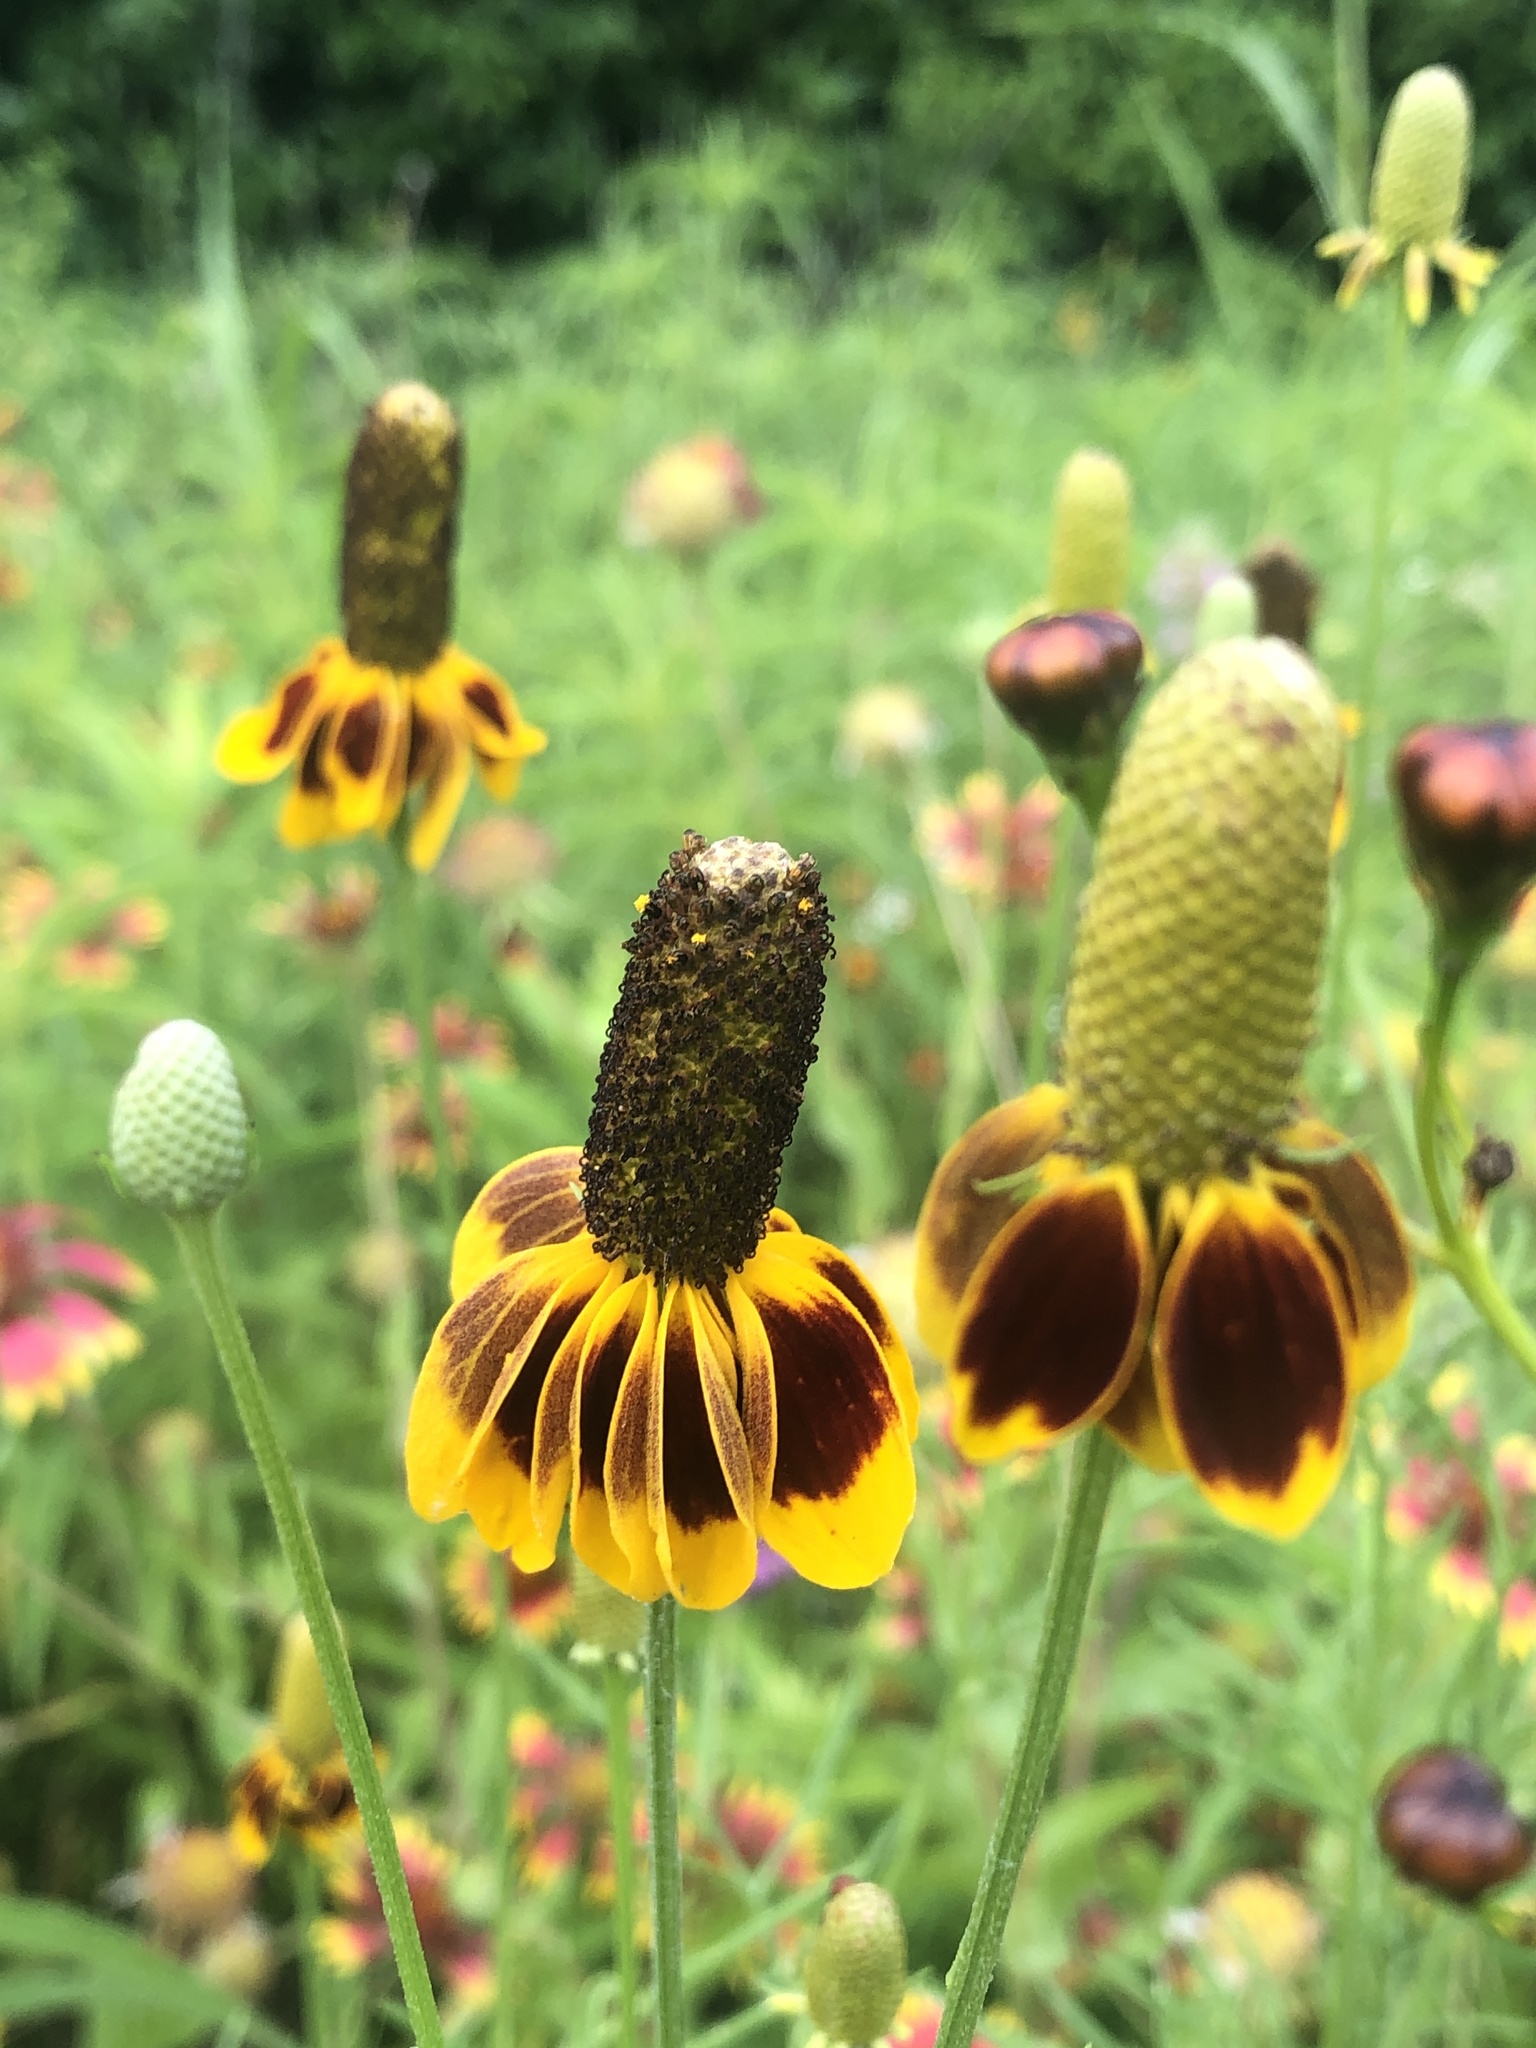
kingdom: Plantae
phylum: Tracheophyta
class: Magnoliopsida
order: Asterales
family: Asteraceae
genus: Ratibida
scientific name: Ratibida columnifera
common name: Prairie coneflower
